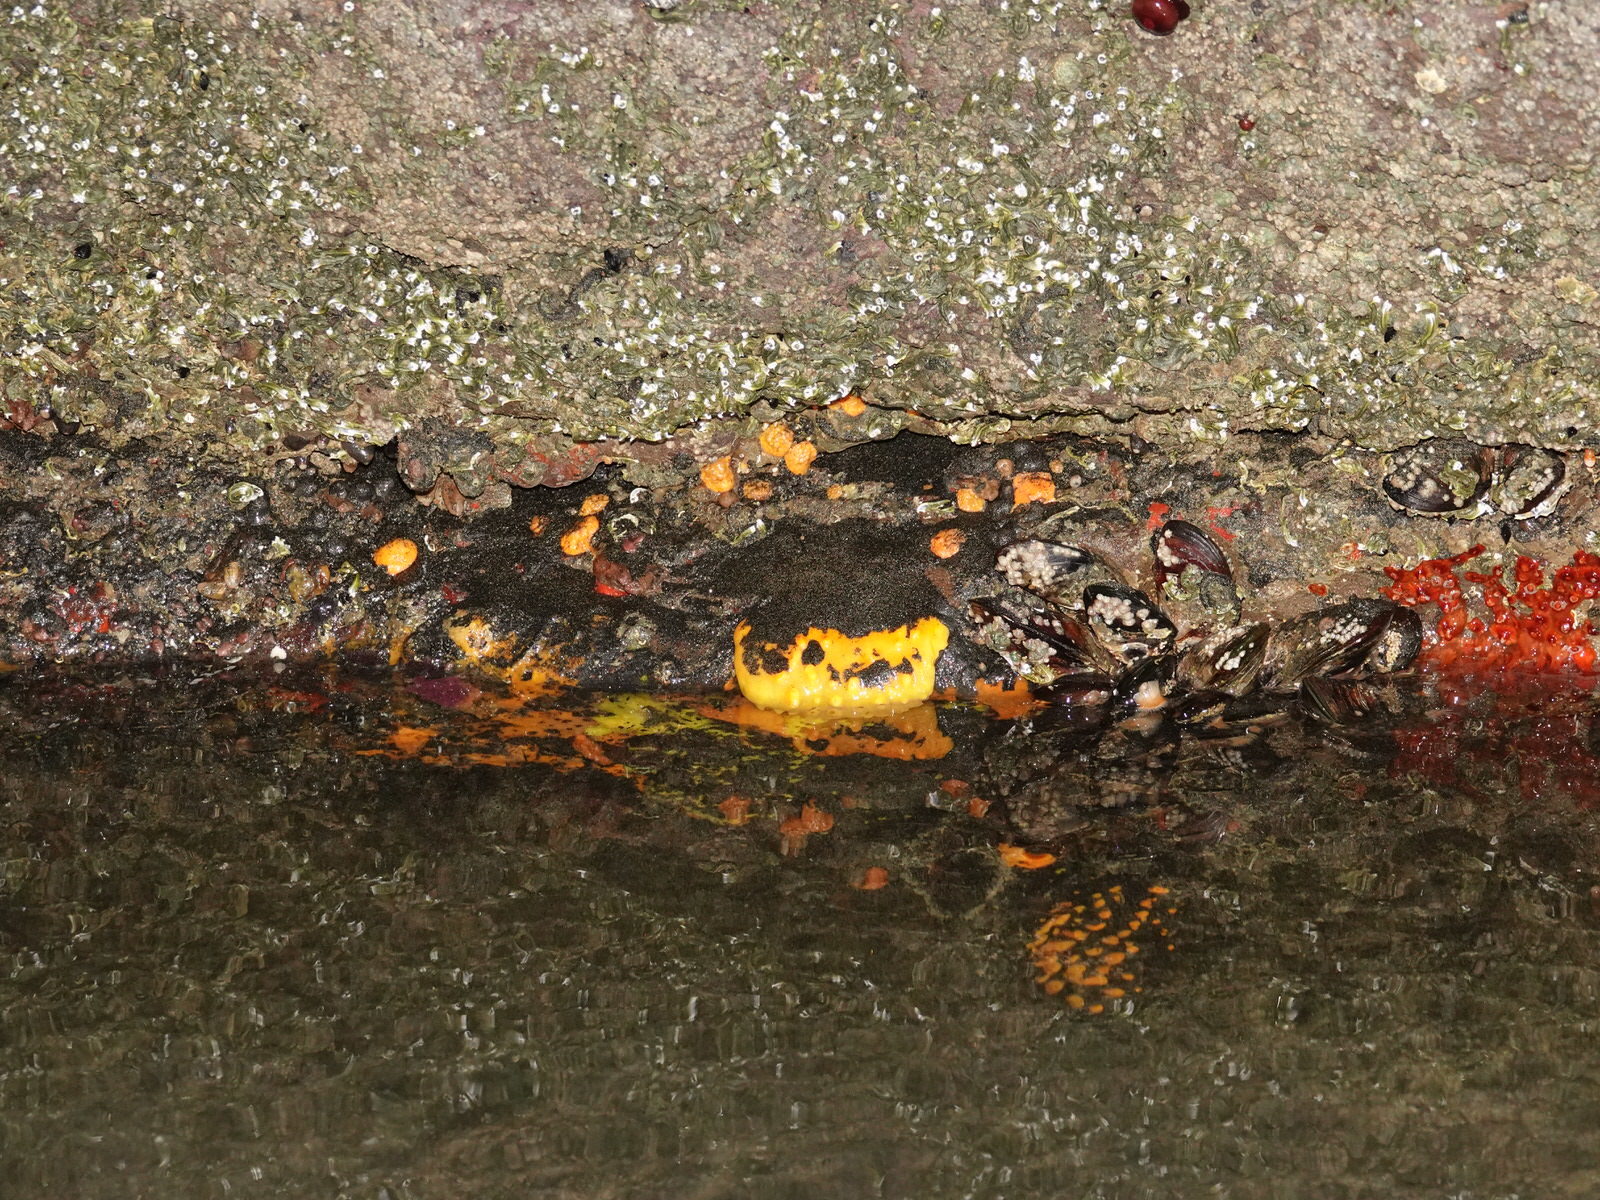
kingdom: Animalia
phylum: Porifera
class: Demospongiae
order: Polymastiida
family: Polymastiidae
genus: Polymastia
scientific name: Polymastia aurantia
